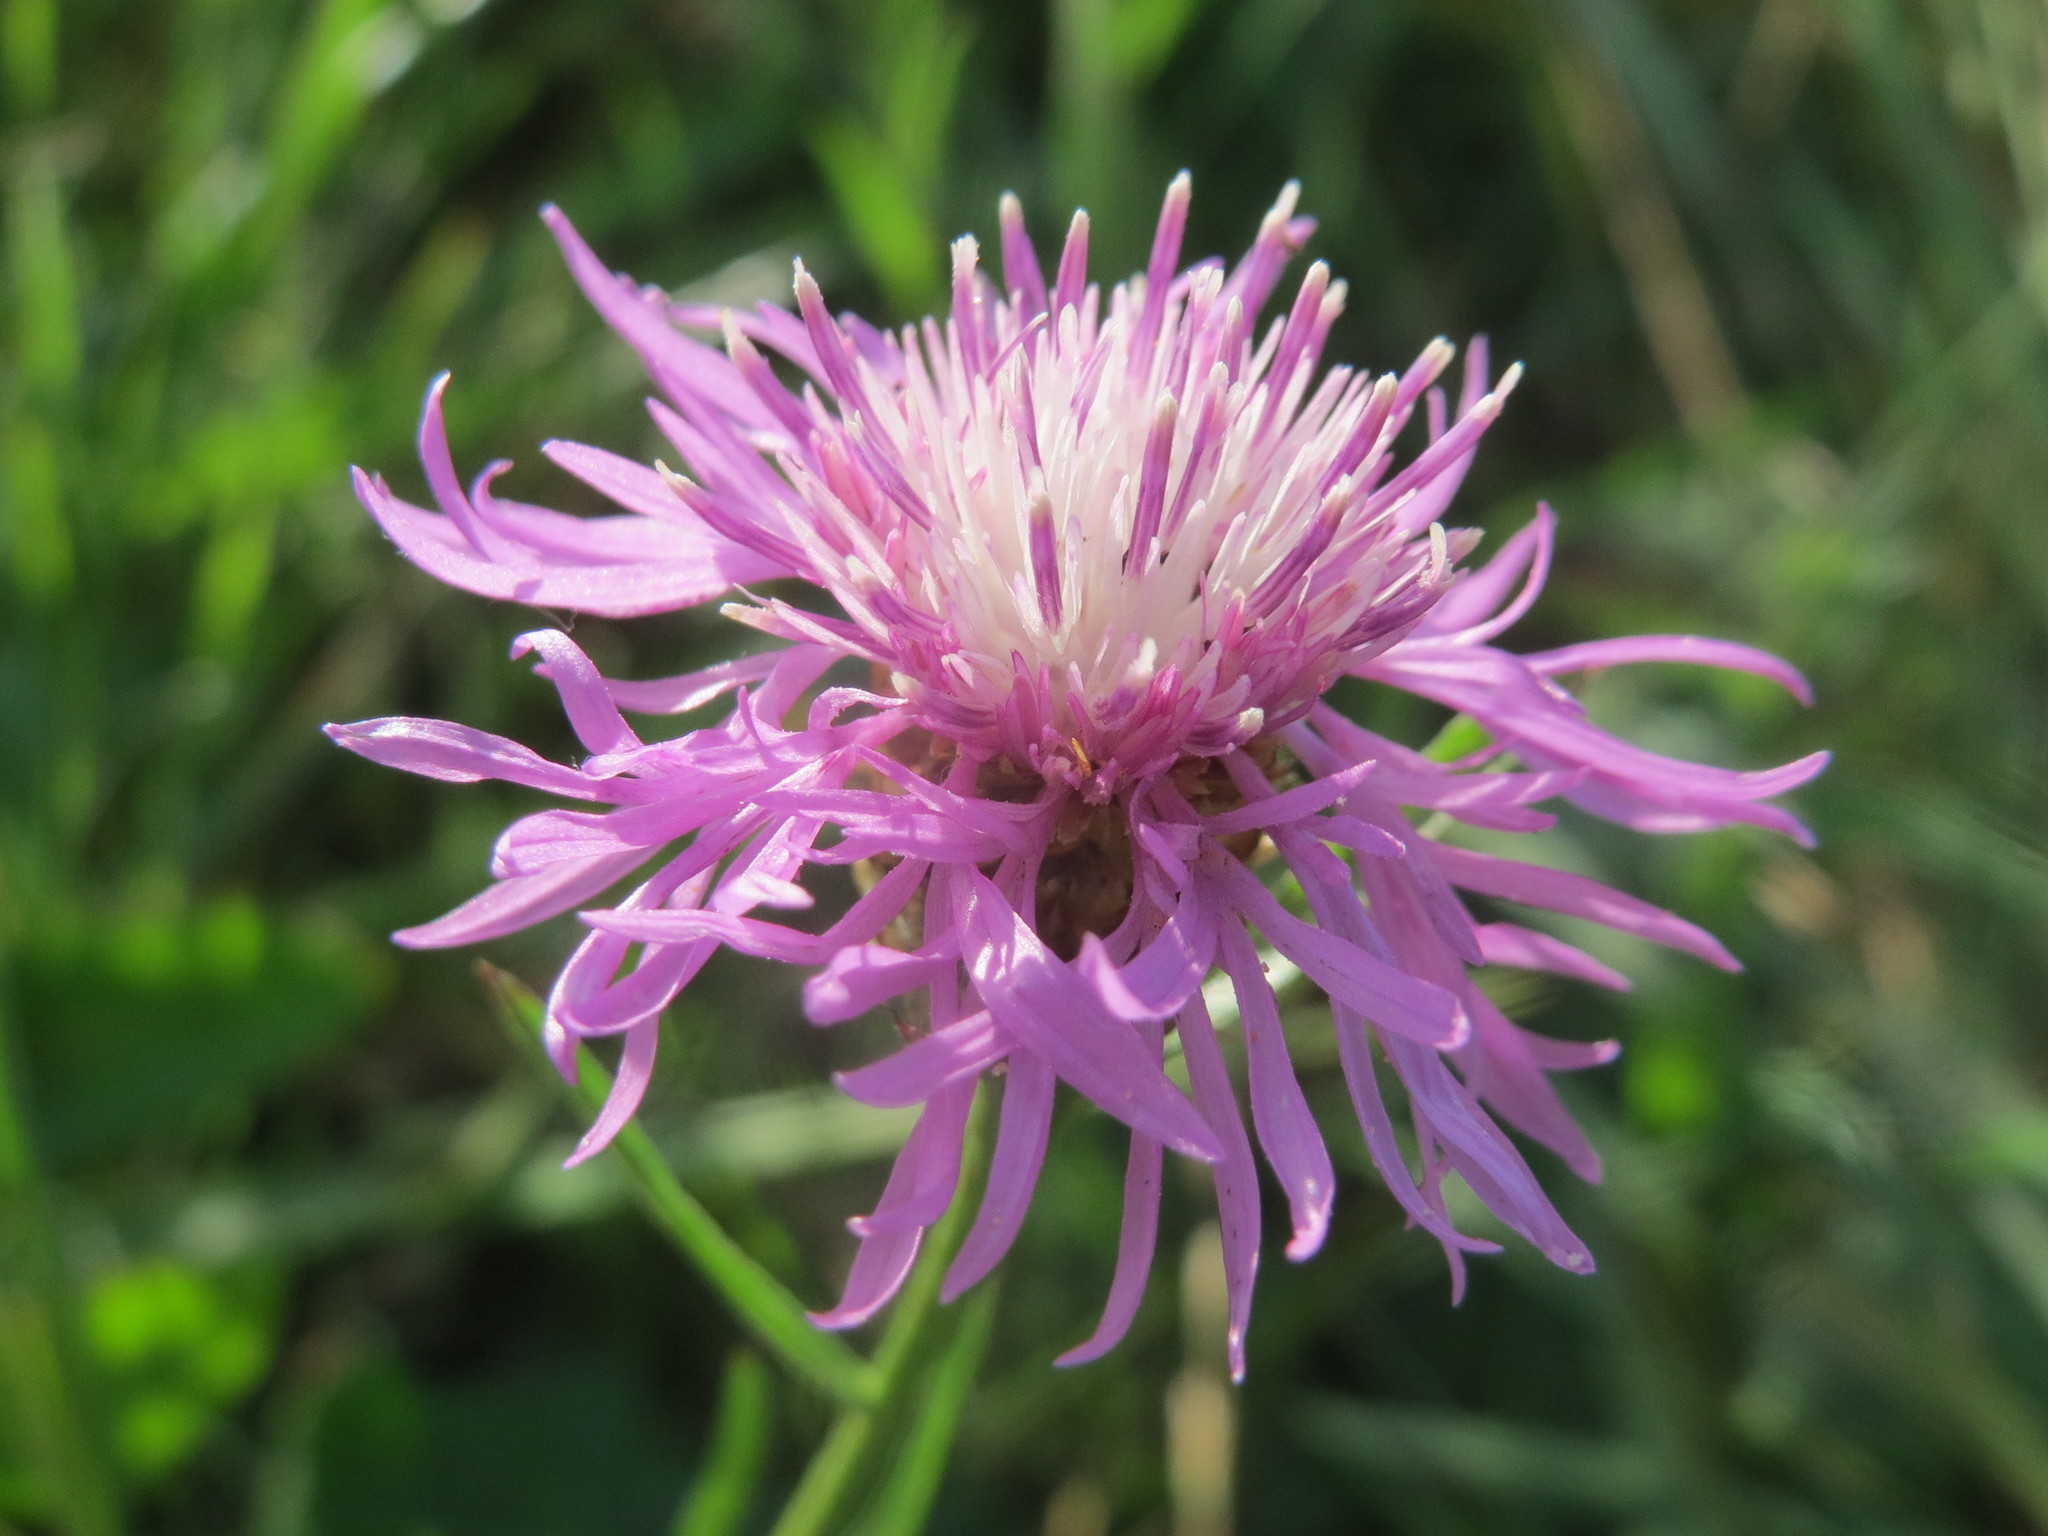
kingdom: Plantae
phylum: Tracheophyta
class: Magnoliopsida
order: Asterales
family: Asteraceae
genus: Centaurea
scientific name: Centaurea jacea
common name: Brown knapweed
